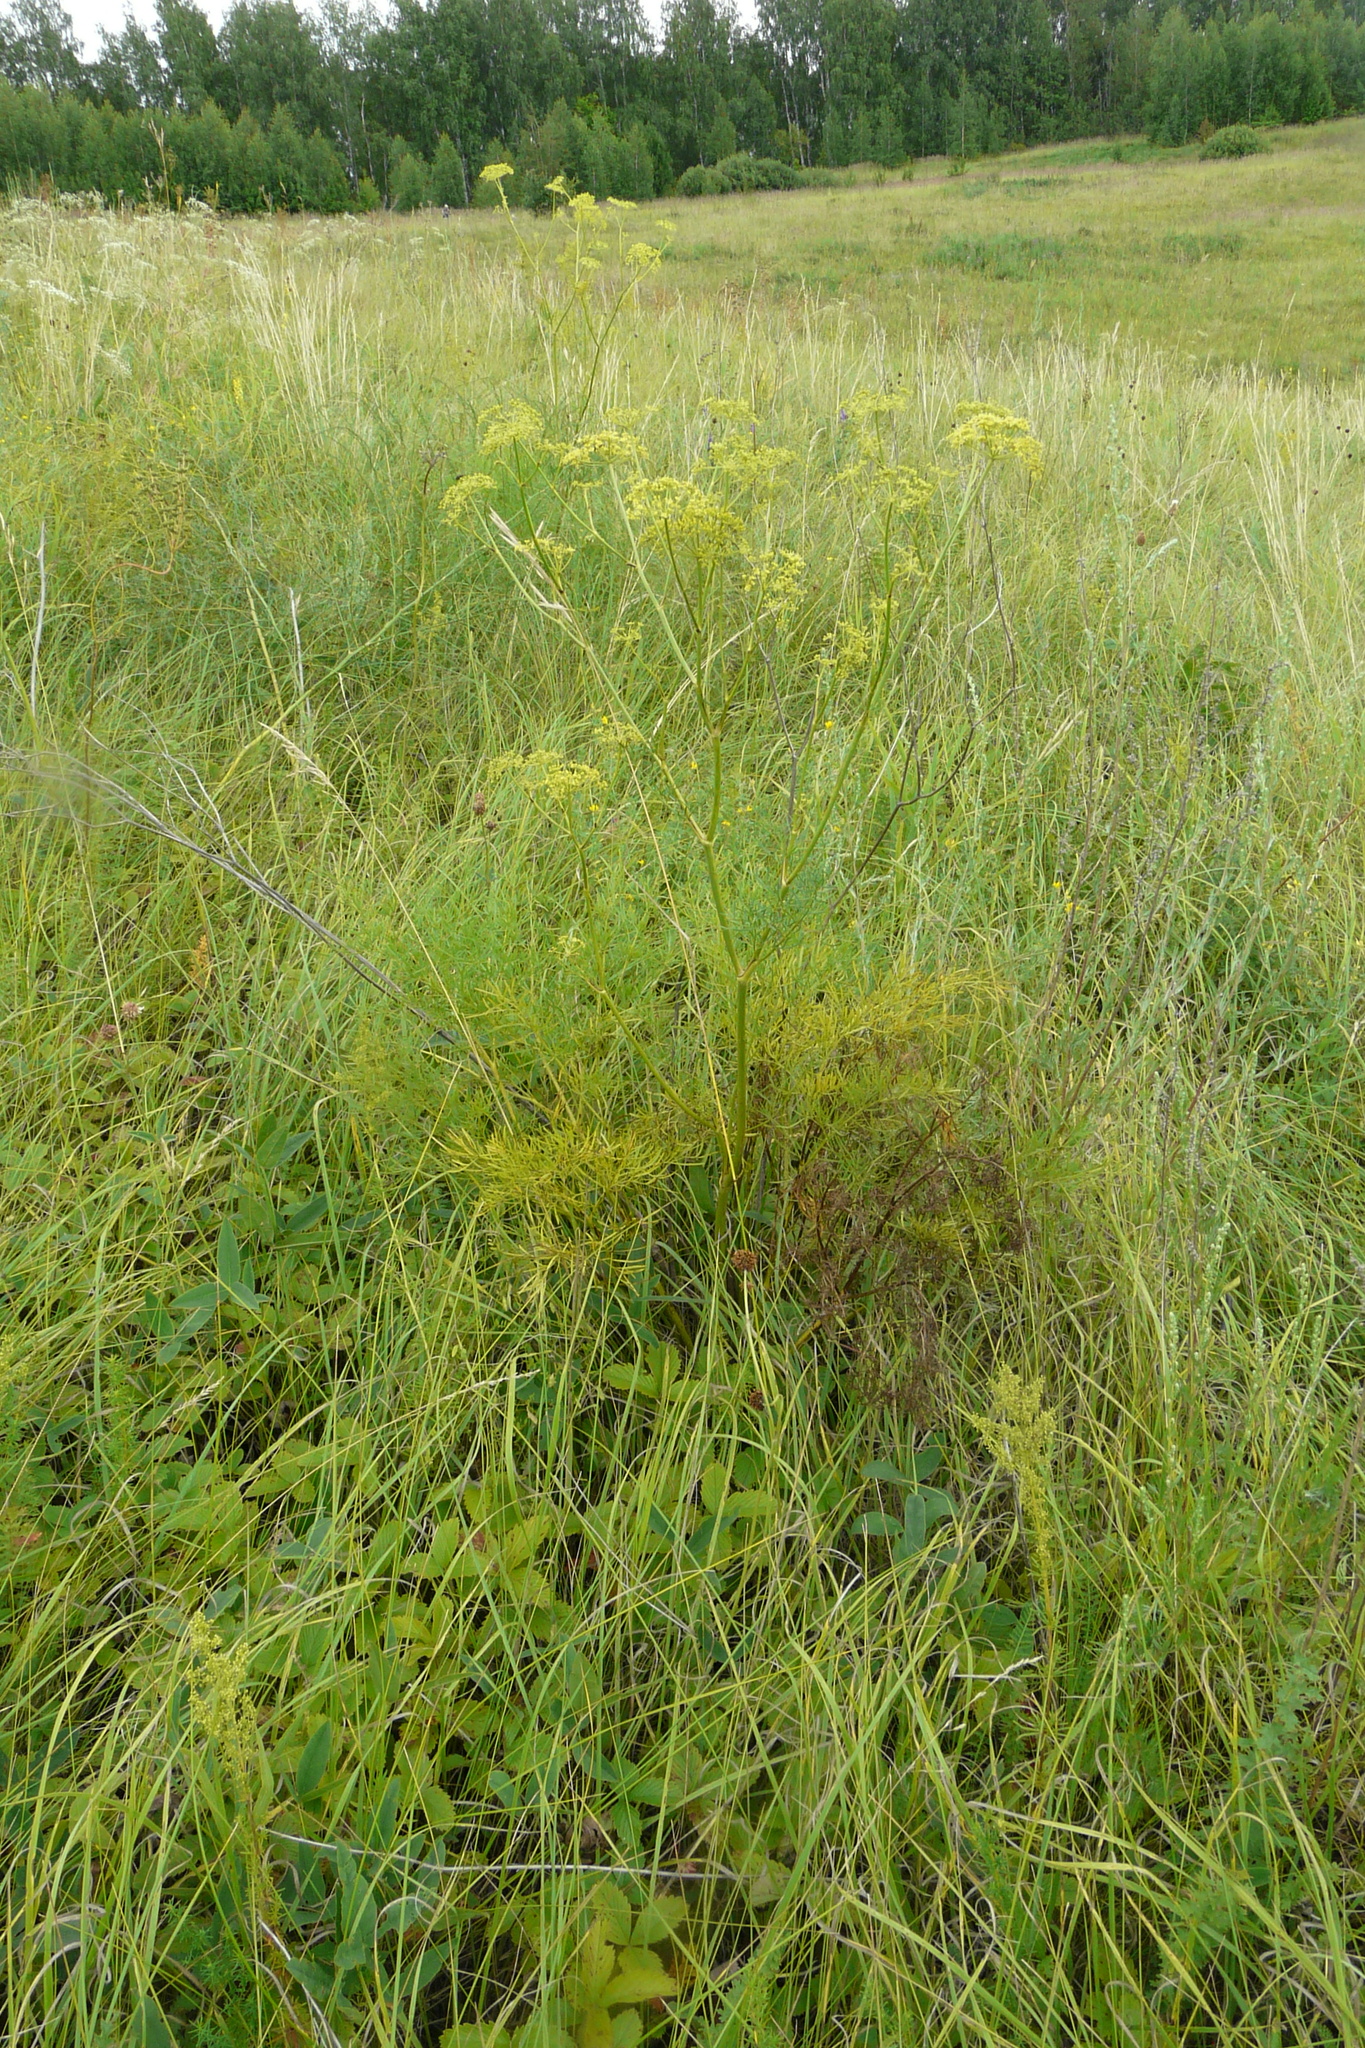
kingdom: Plantae
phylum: Tracheophyta
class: Magnoliopsida
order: Apiales
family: Apiaceae
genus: Silaum
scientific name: Silaum silaus
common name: Pepper-saxifrage
